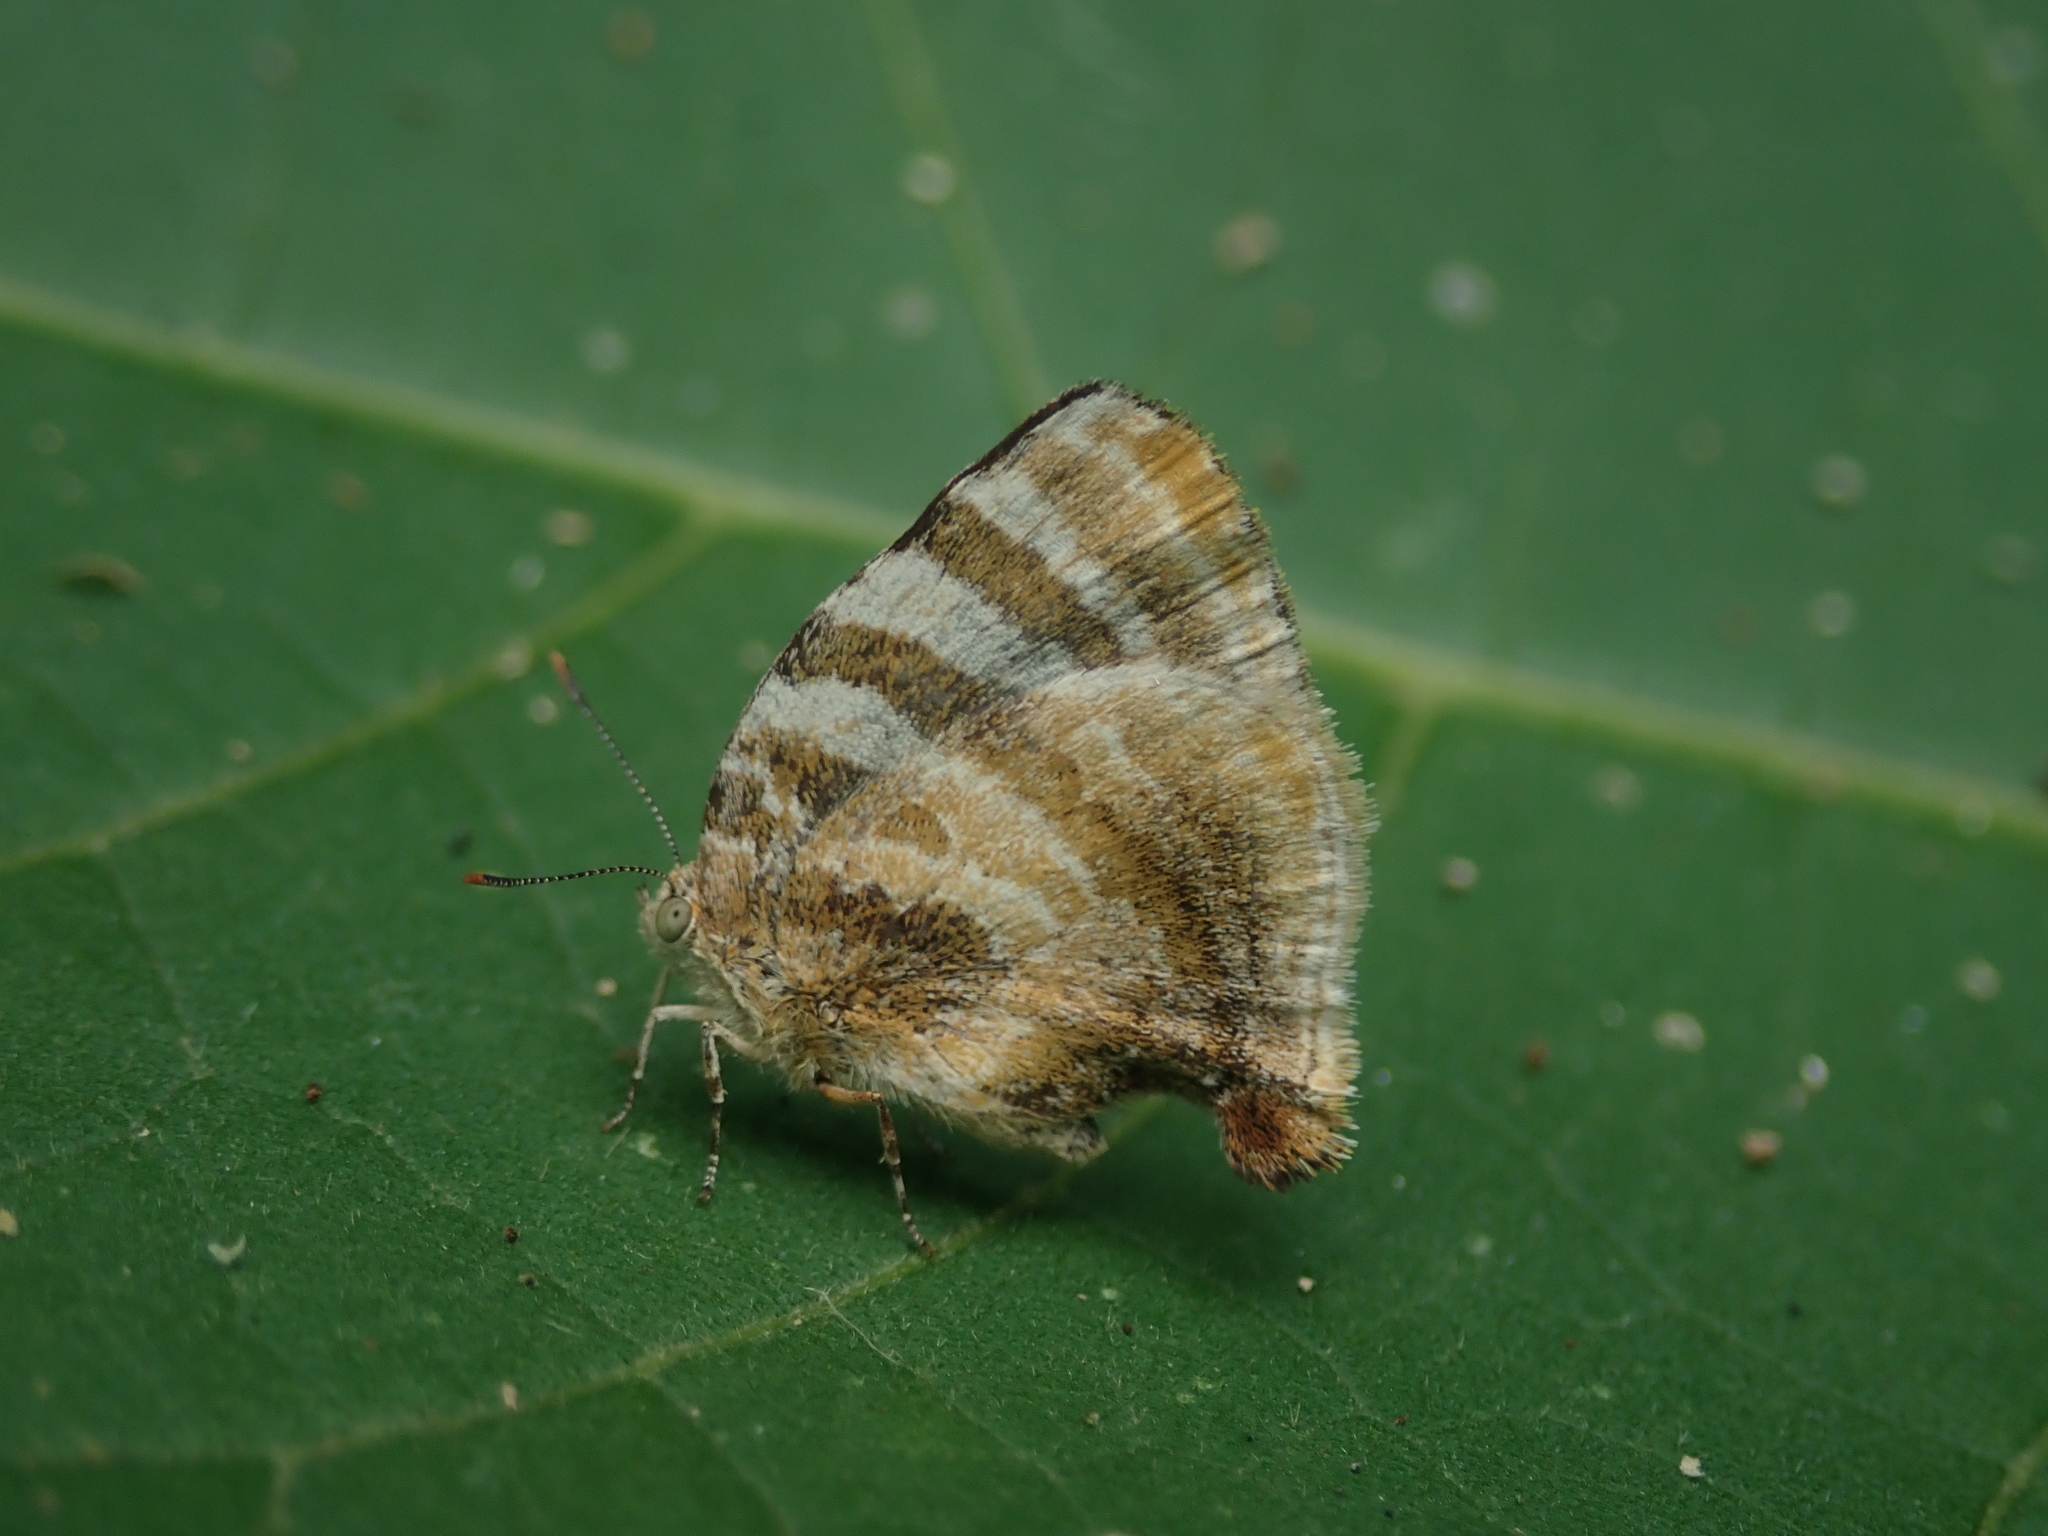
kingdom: Animalia
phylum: Arthropoda
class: Insecta
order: Lepidoptera
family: Lycaenidae
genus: Thecla
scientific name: Thecla dolylas
